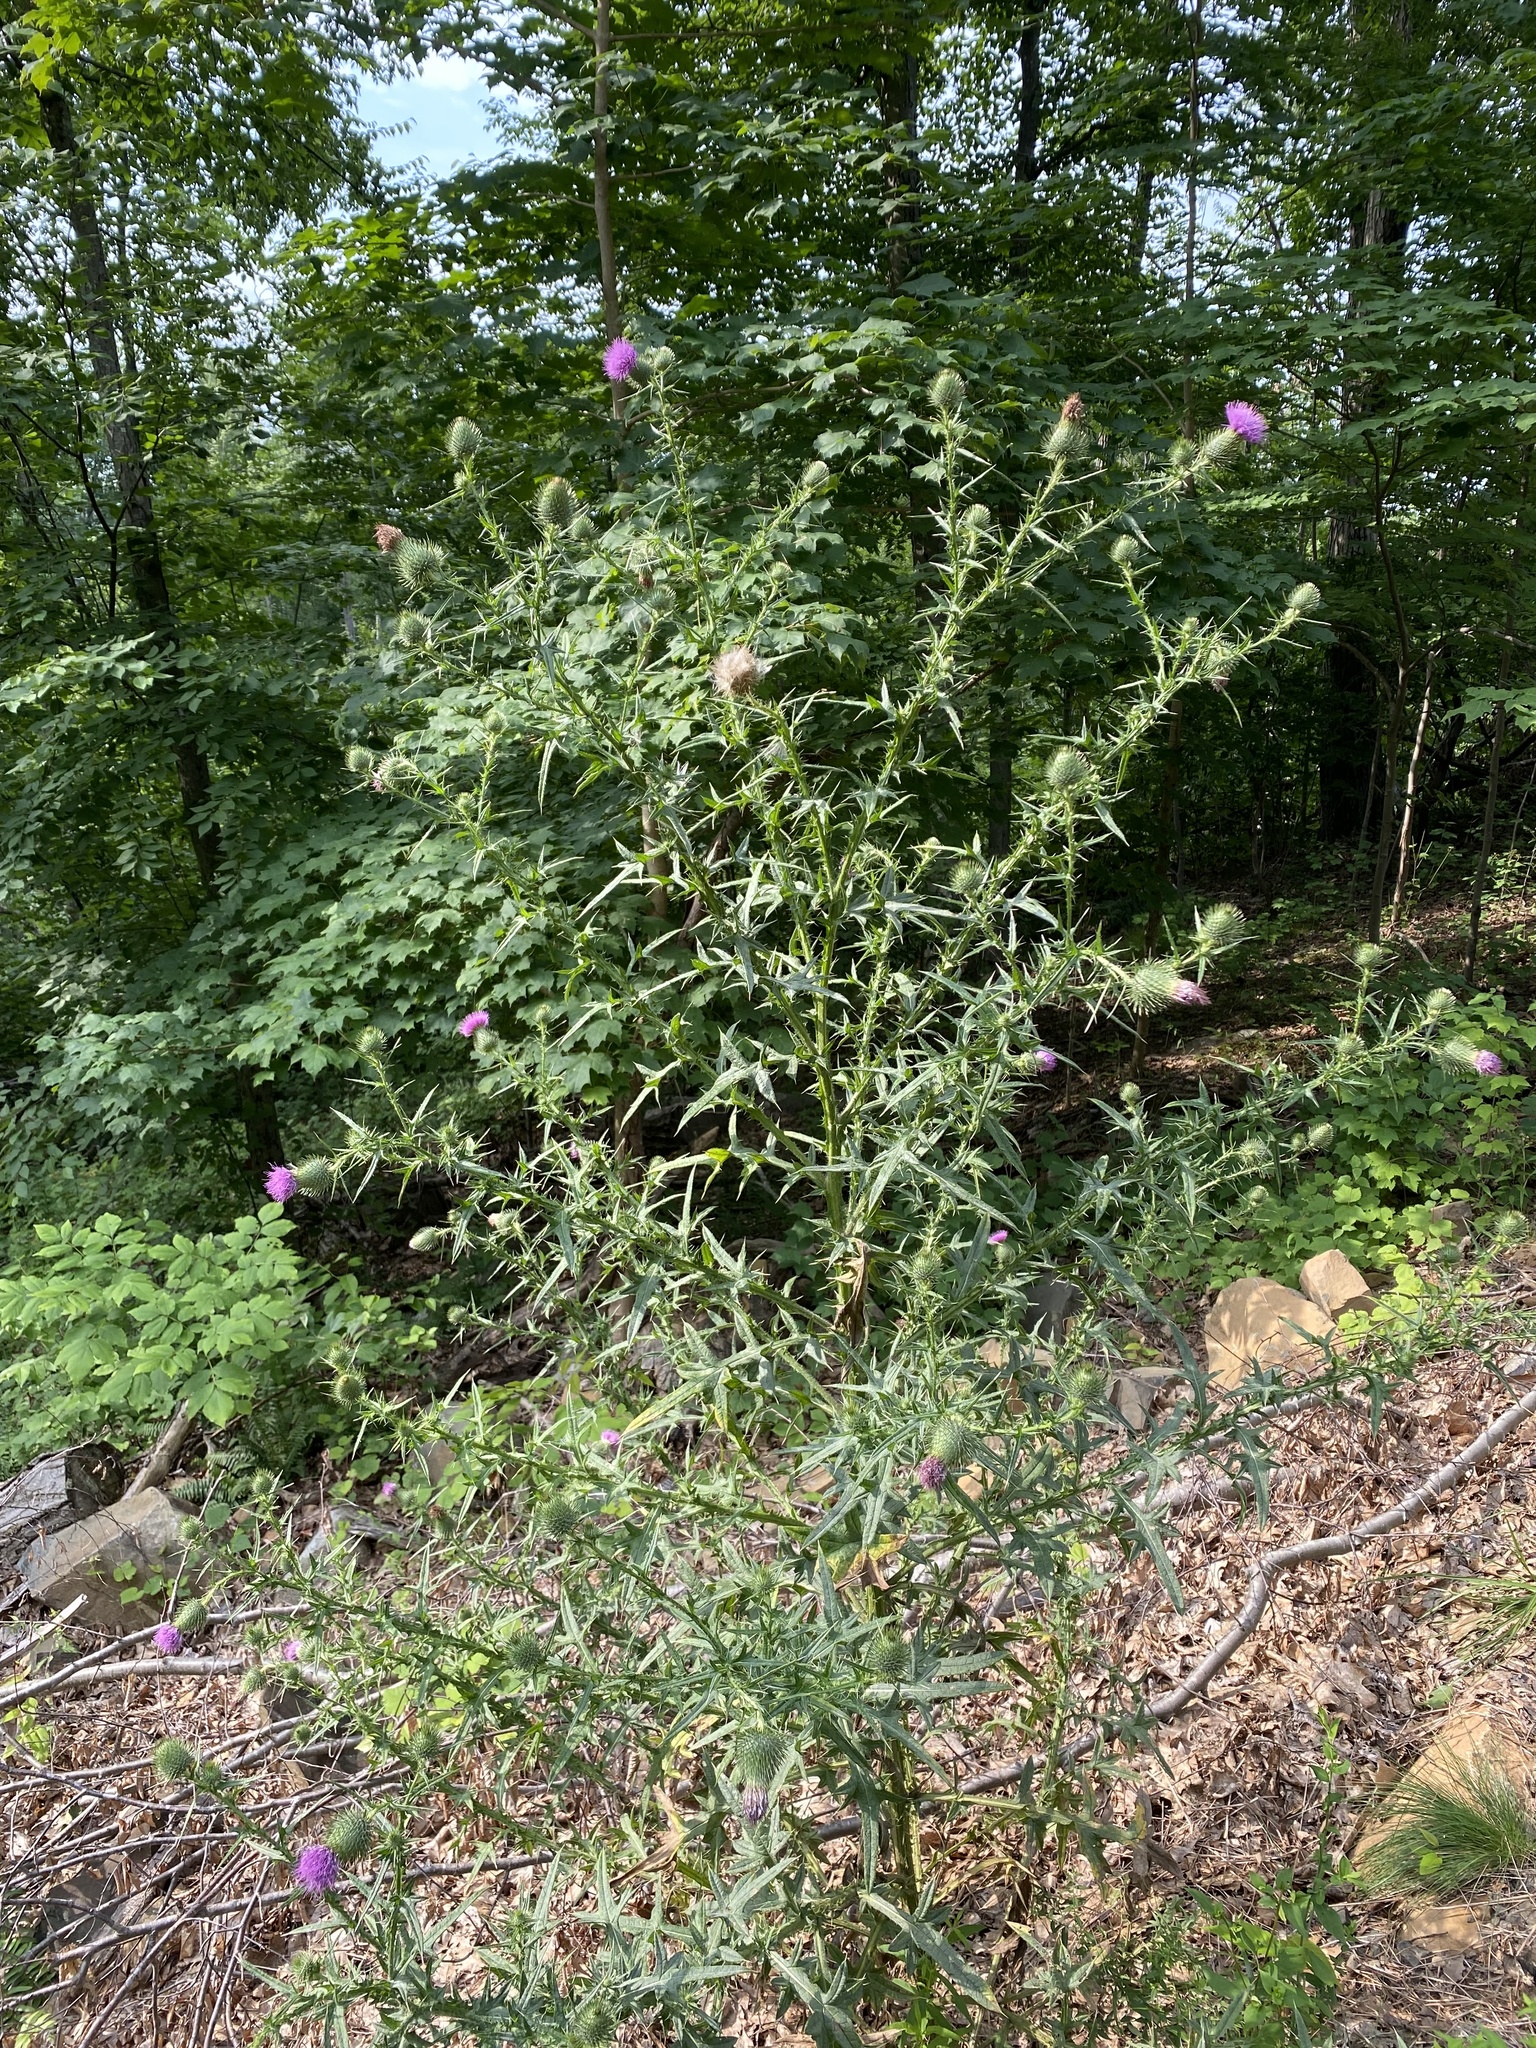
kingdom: Plantae
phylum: Tracheophyta
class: Magnoliopsida
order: Asterales
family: Asteraceae
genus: Cirsium
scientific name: Cirsium vulgare
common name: Bull thistle
